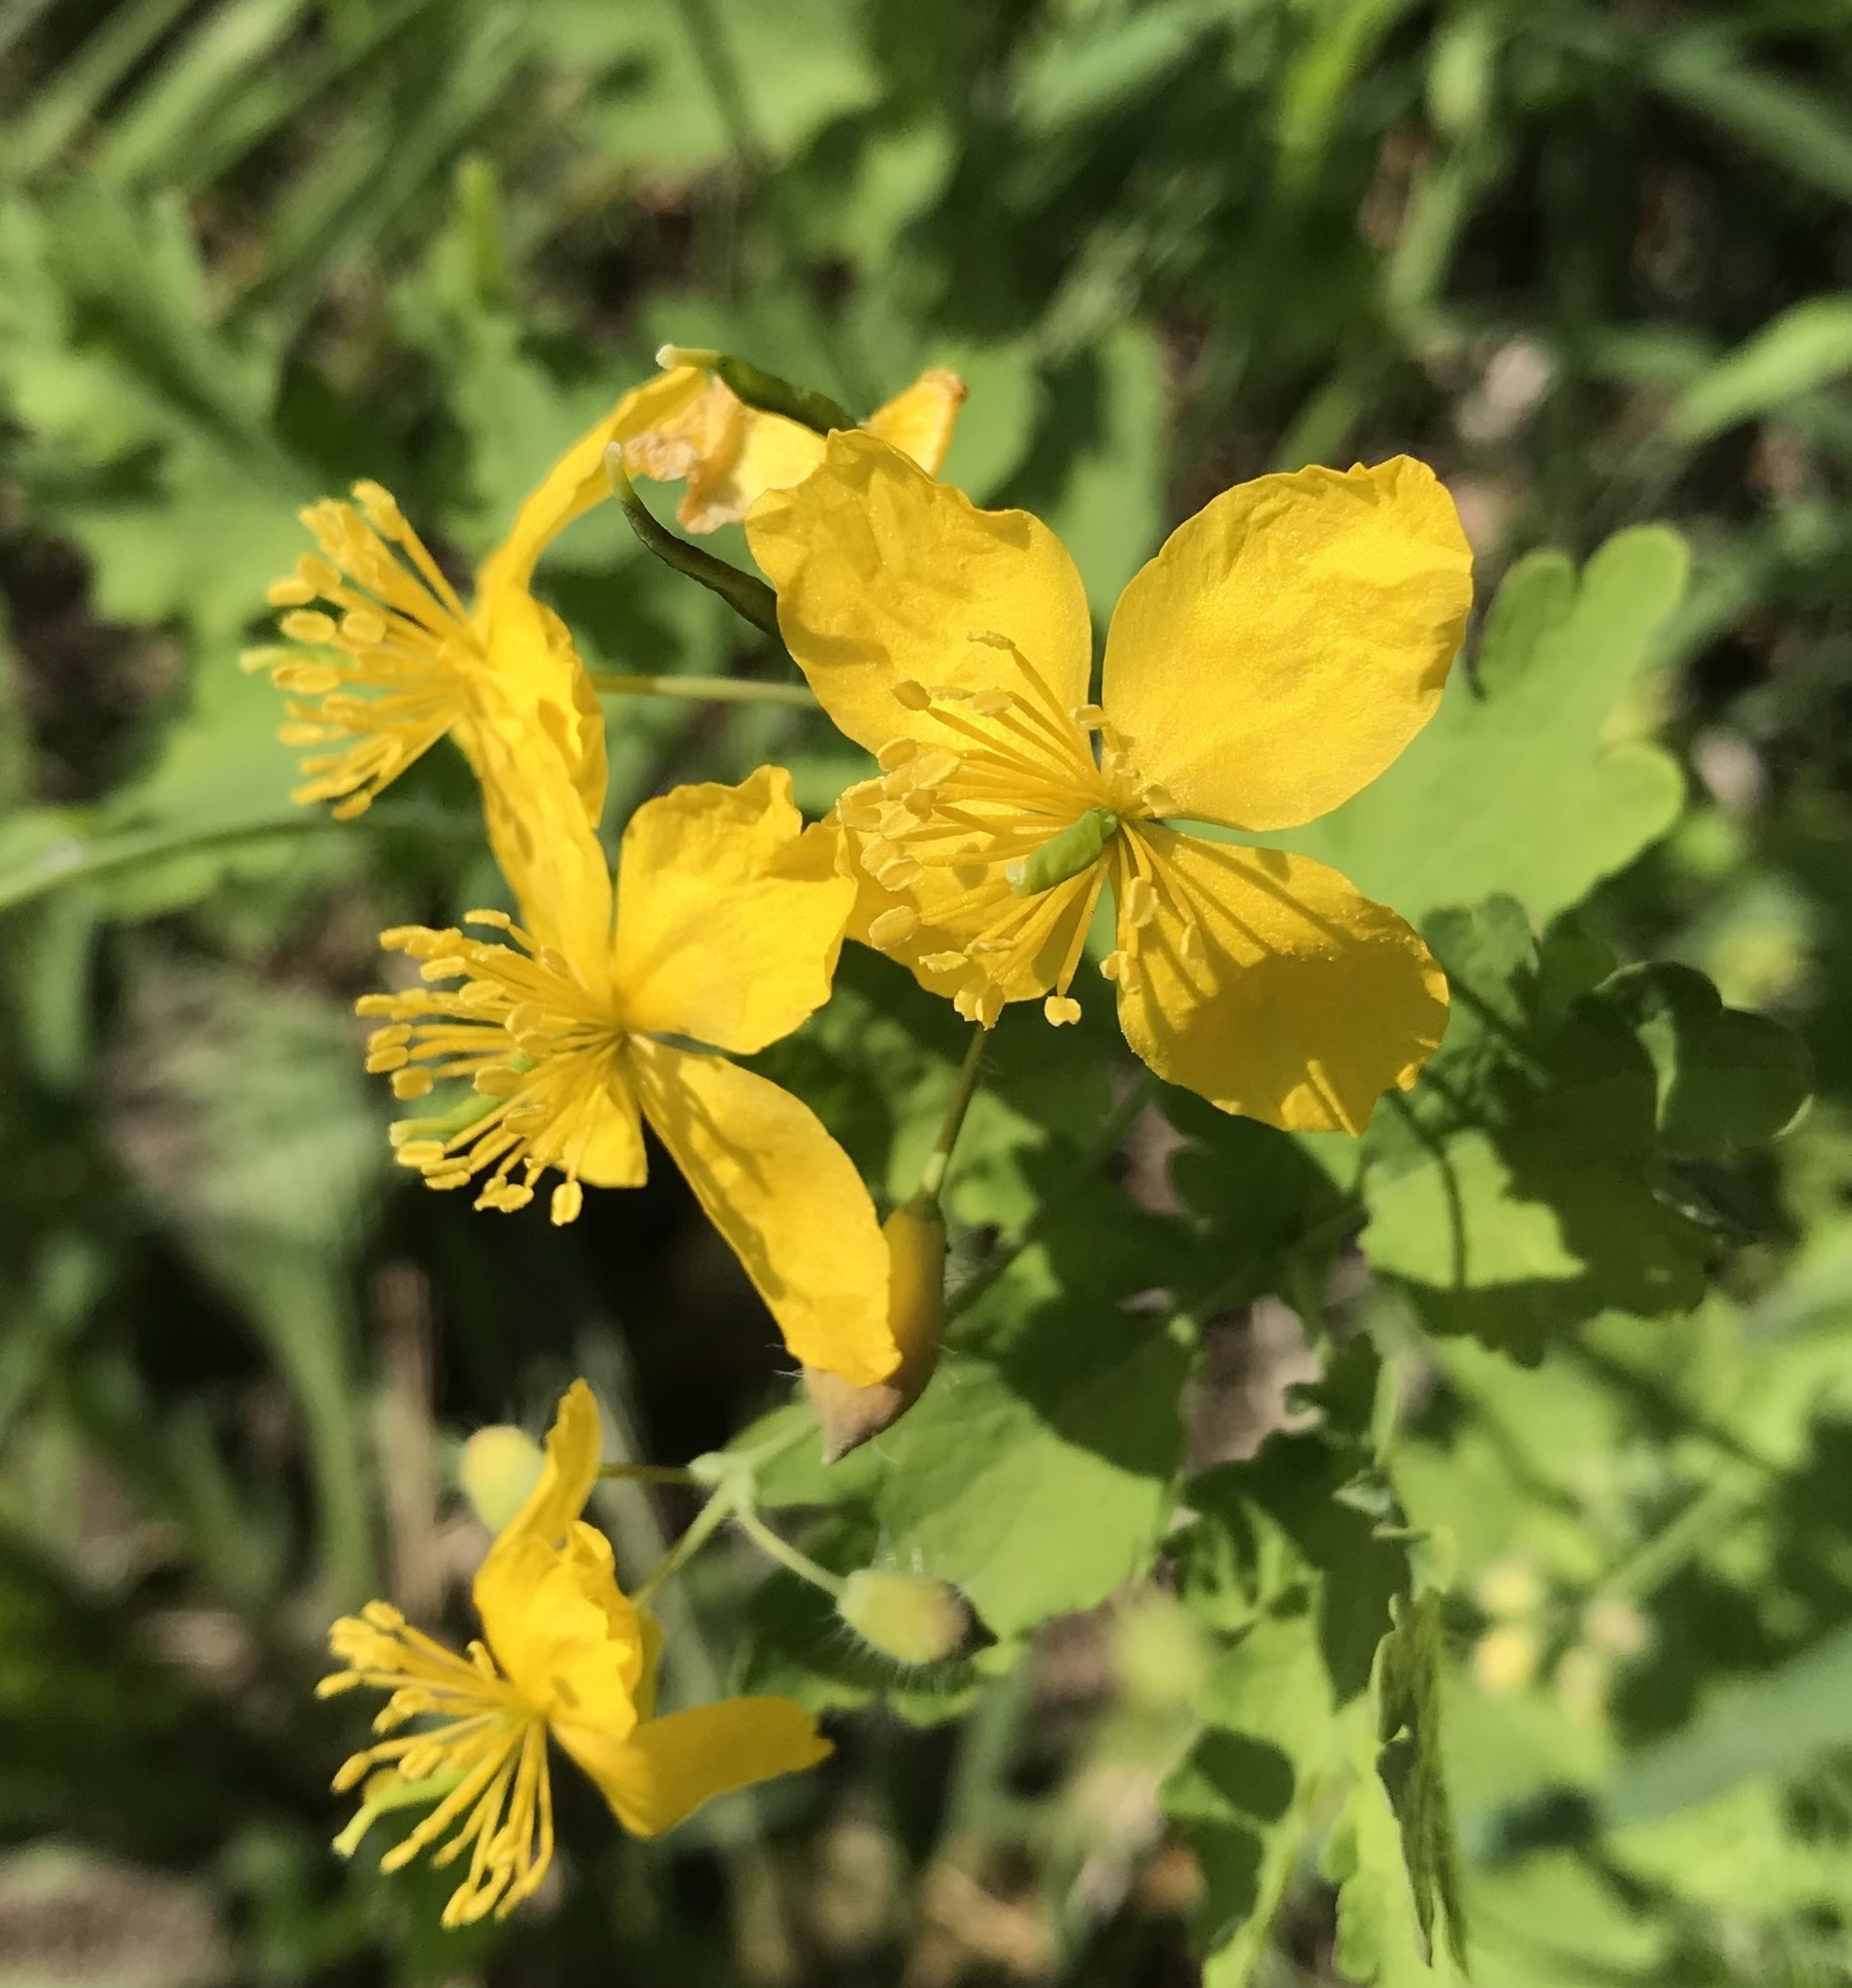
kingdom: Plantae
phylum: Tracheophyta
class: Magnoliopsida
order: Ranunculales
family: Papaveraceae
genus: Chelidonium
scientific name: Chelidonium majus
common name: Greater celandine
